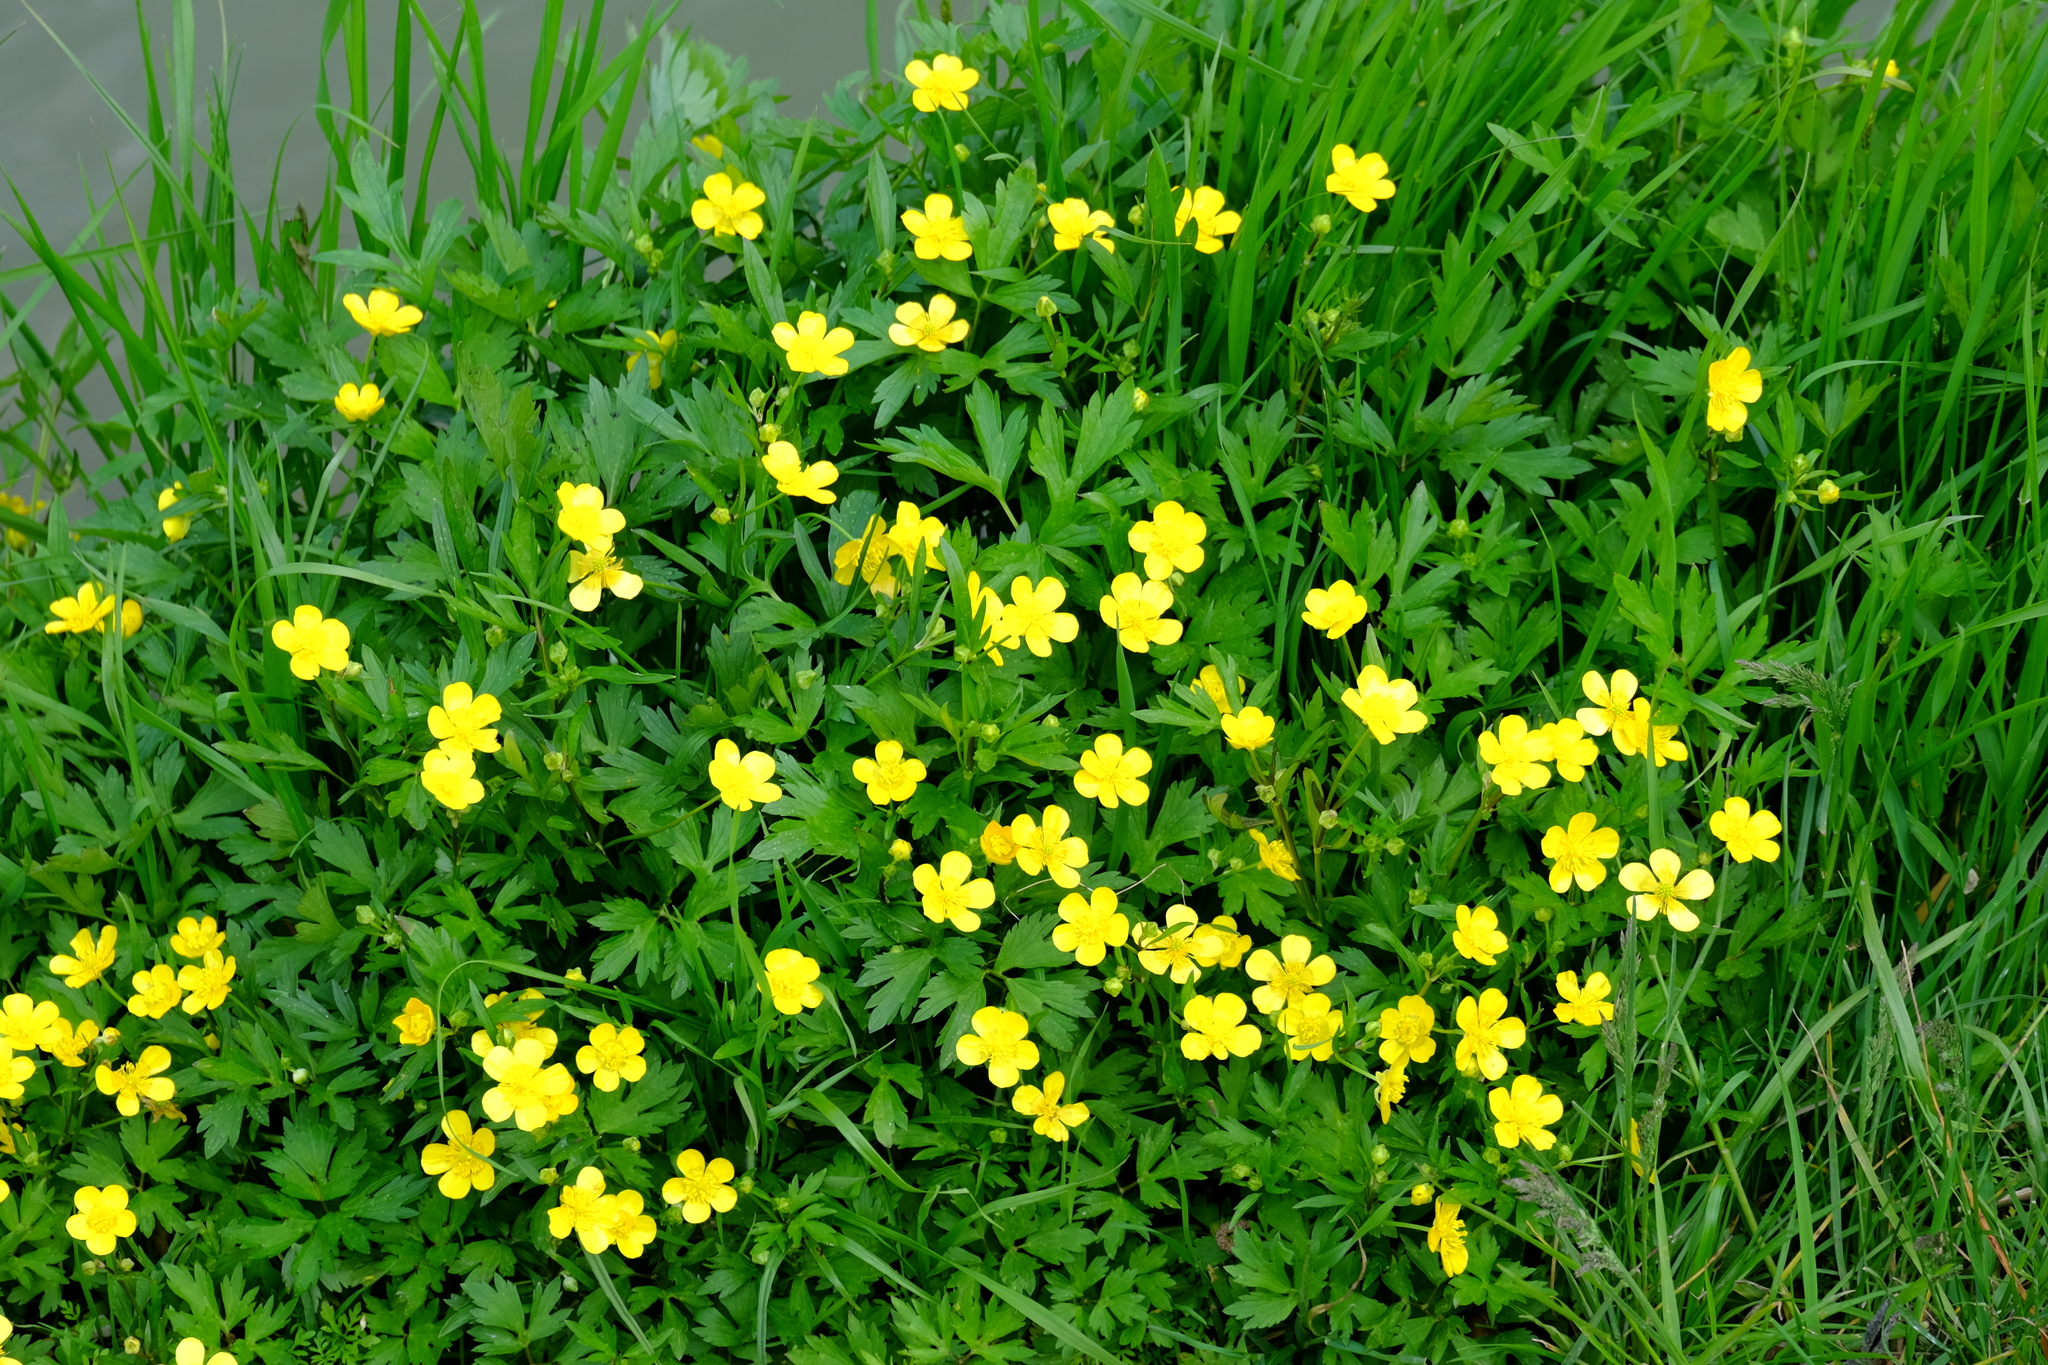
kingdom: Plantae
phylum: Tracheophyta
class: Magnoliopsida
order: Ranunculales
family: Ranunculaceae
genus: Ranunculus
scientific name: Ranunculus repens
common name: Creeping buttercup
